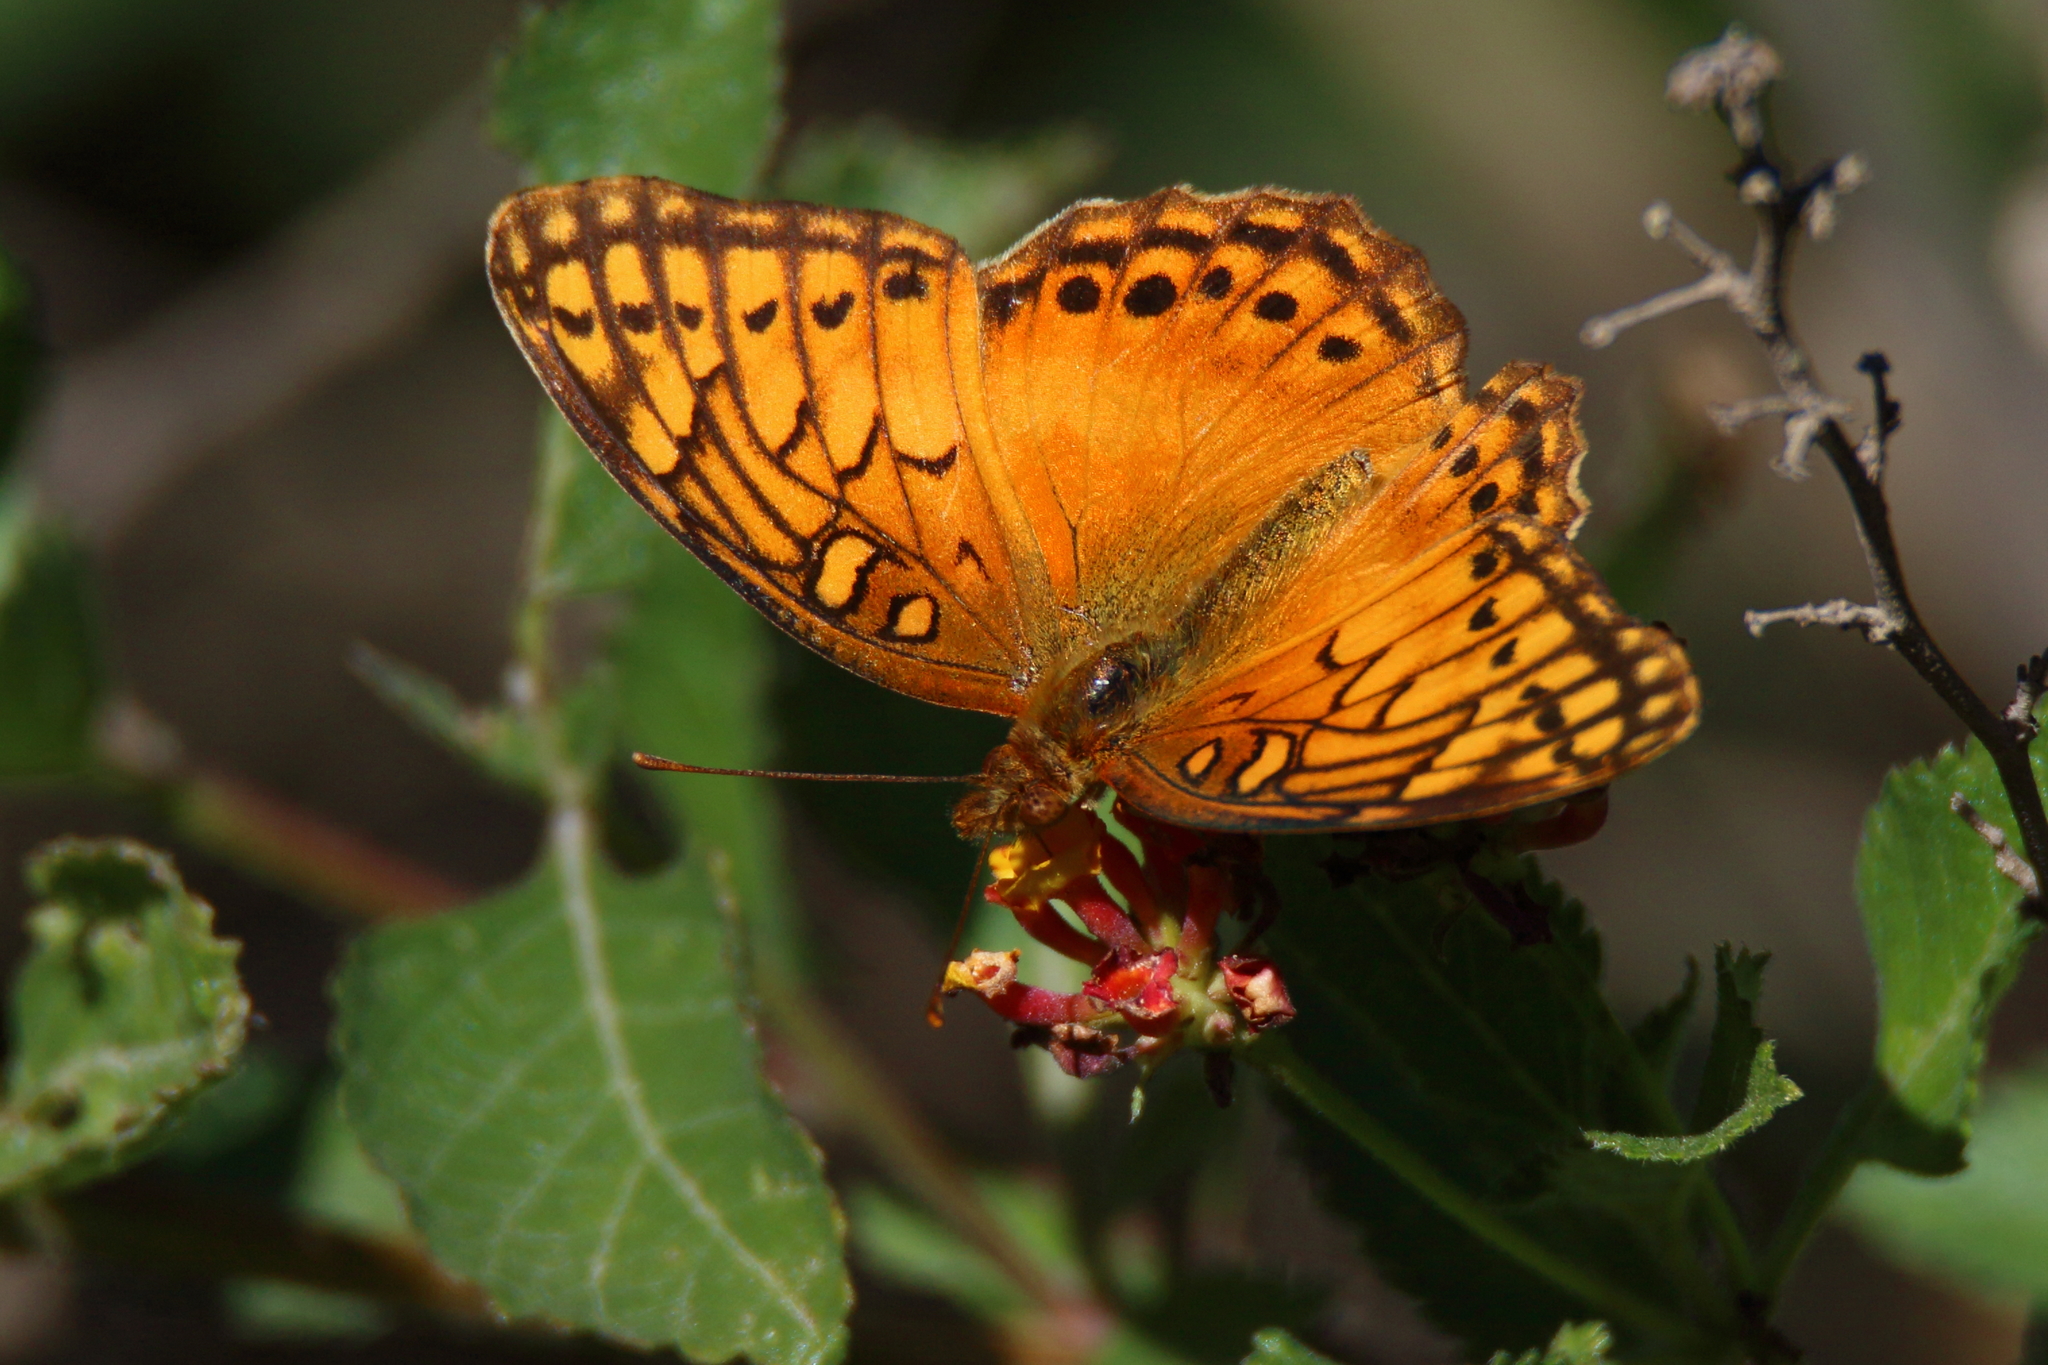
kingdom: Animalia
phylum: Arthropoda
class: Insecta
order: Lepidoptera
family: Nymphalidae
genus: Euptoieta
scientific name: Euptoieta hegesia
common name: Mexican fritillary
